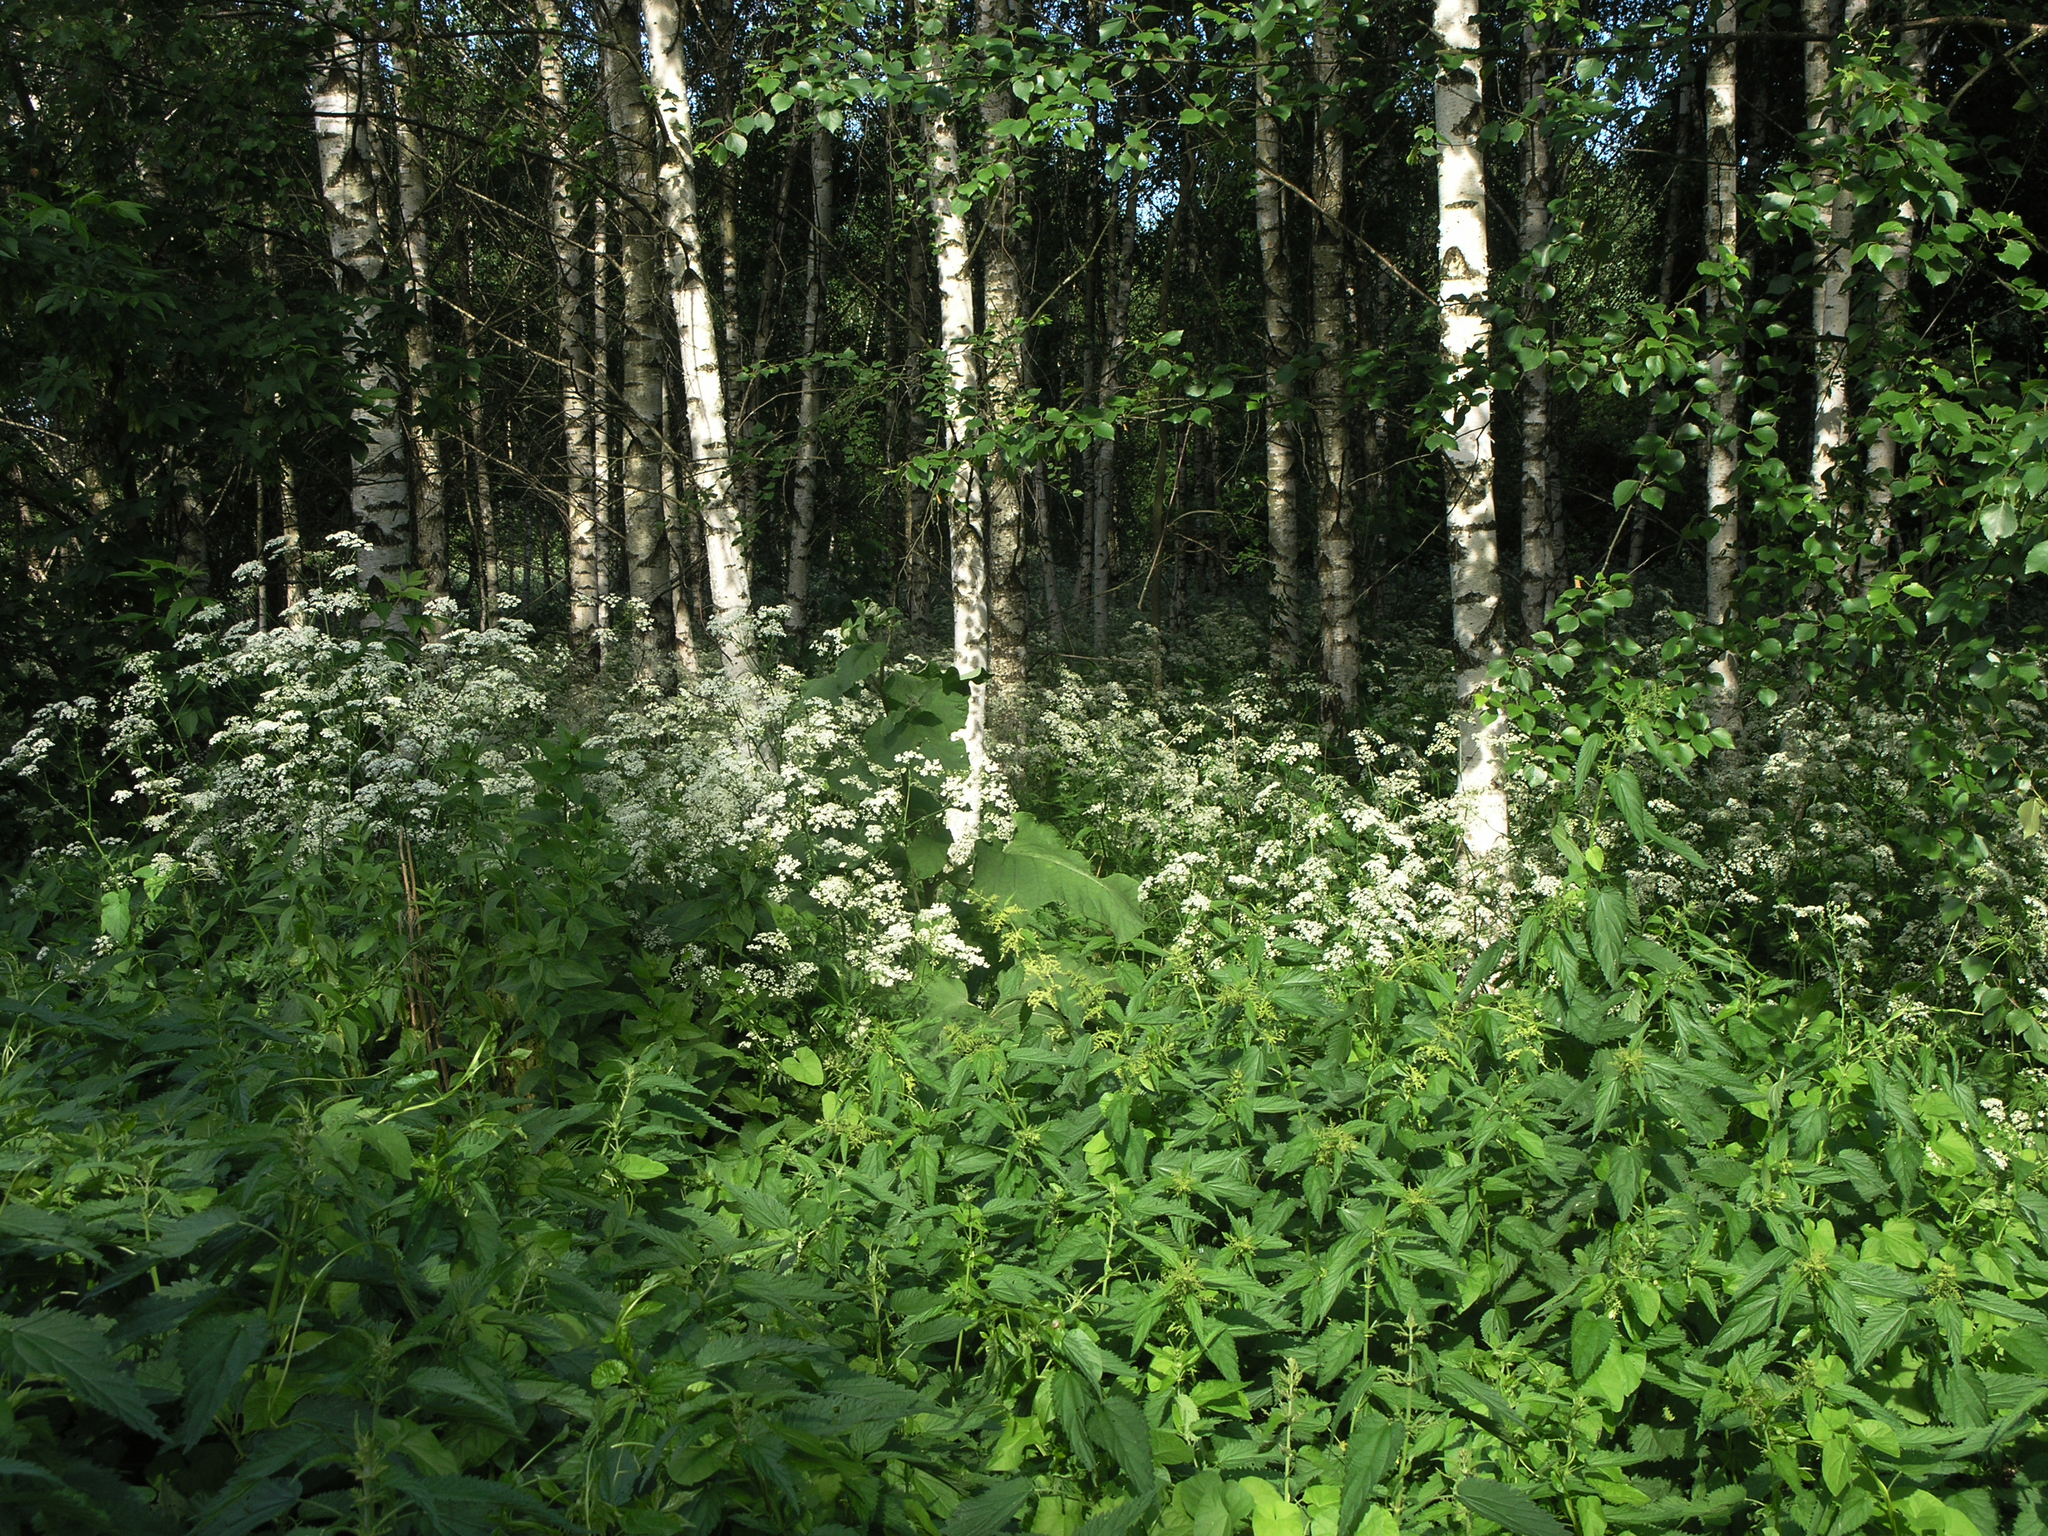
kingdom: Plantae
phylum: Tracheophyta
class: Magnoliopsida
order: Apiales
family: Apiaceae
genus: Anthriscus
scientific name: Anthriscus sylvestris
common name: Cow parsley
